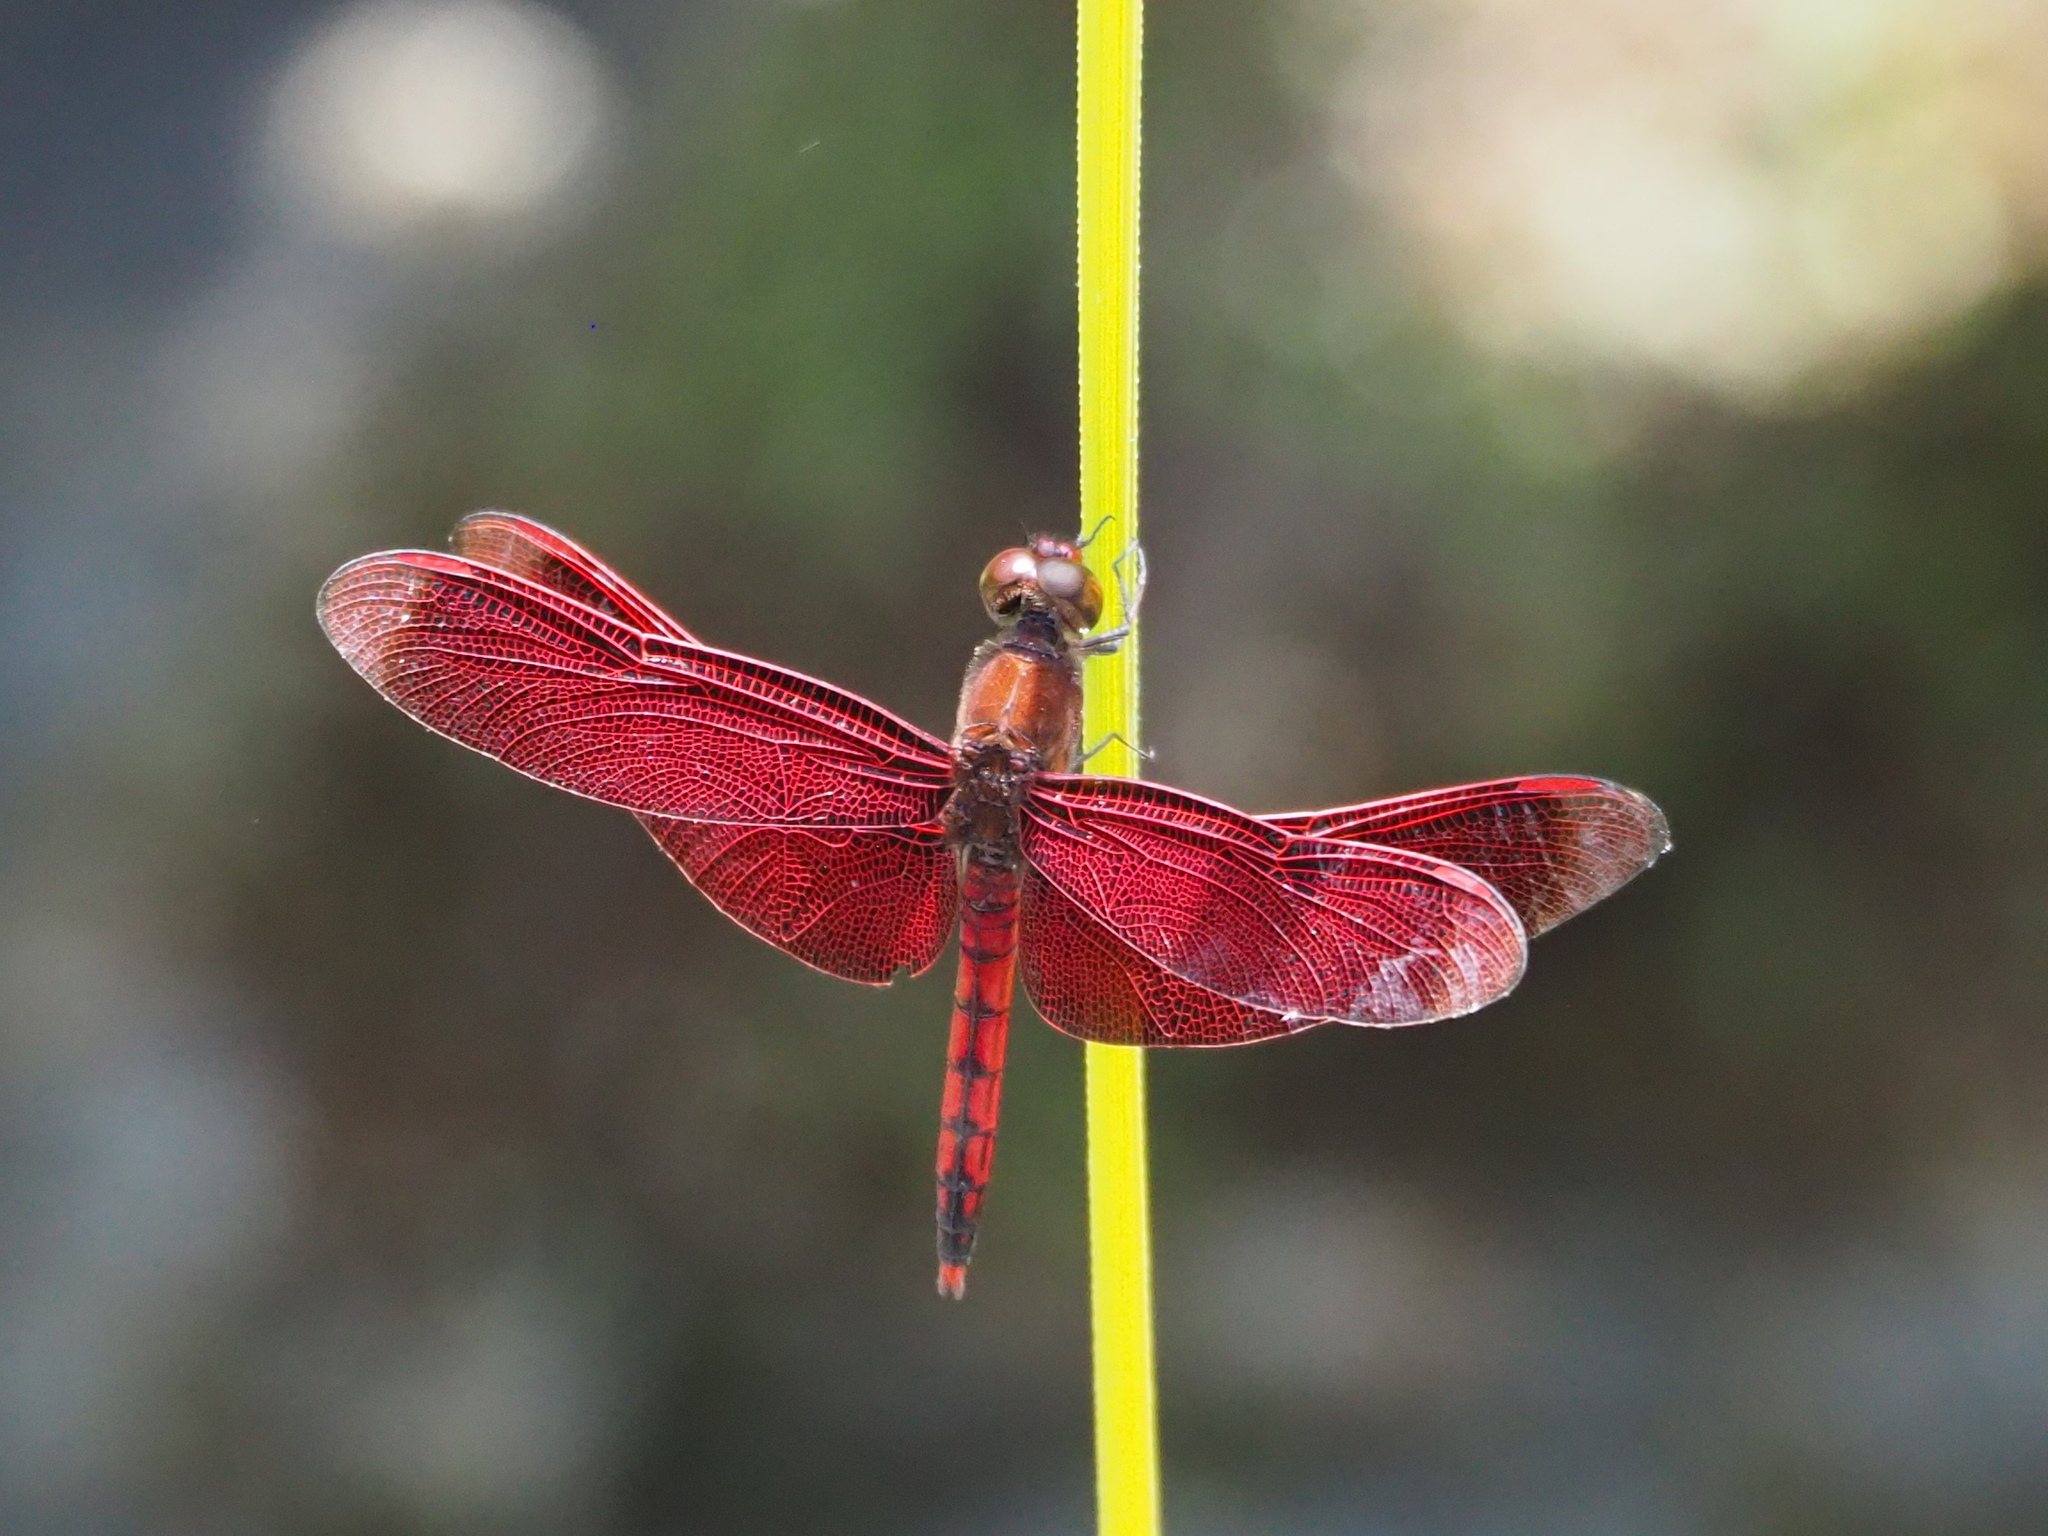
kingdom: Animalia
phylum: Arthropoda
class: Insecta
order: Odonata
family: Libellulidae
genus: Neurothemis
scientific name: Neurothemis taiwanensis
